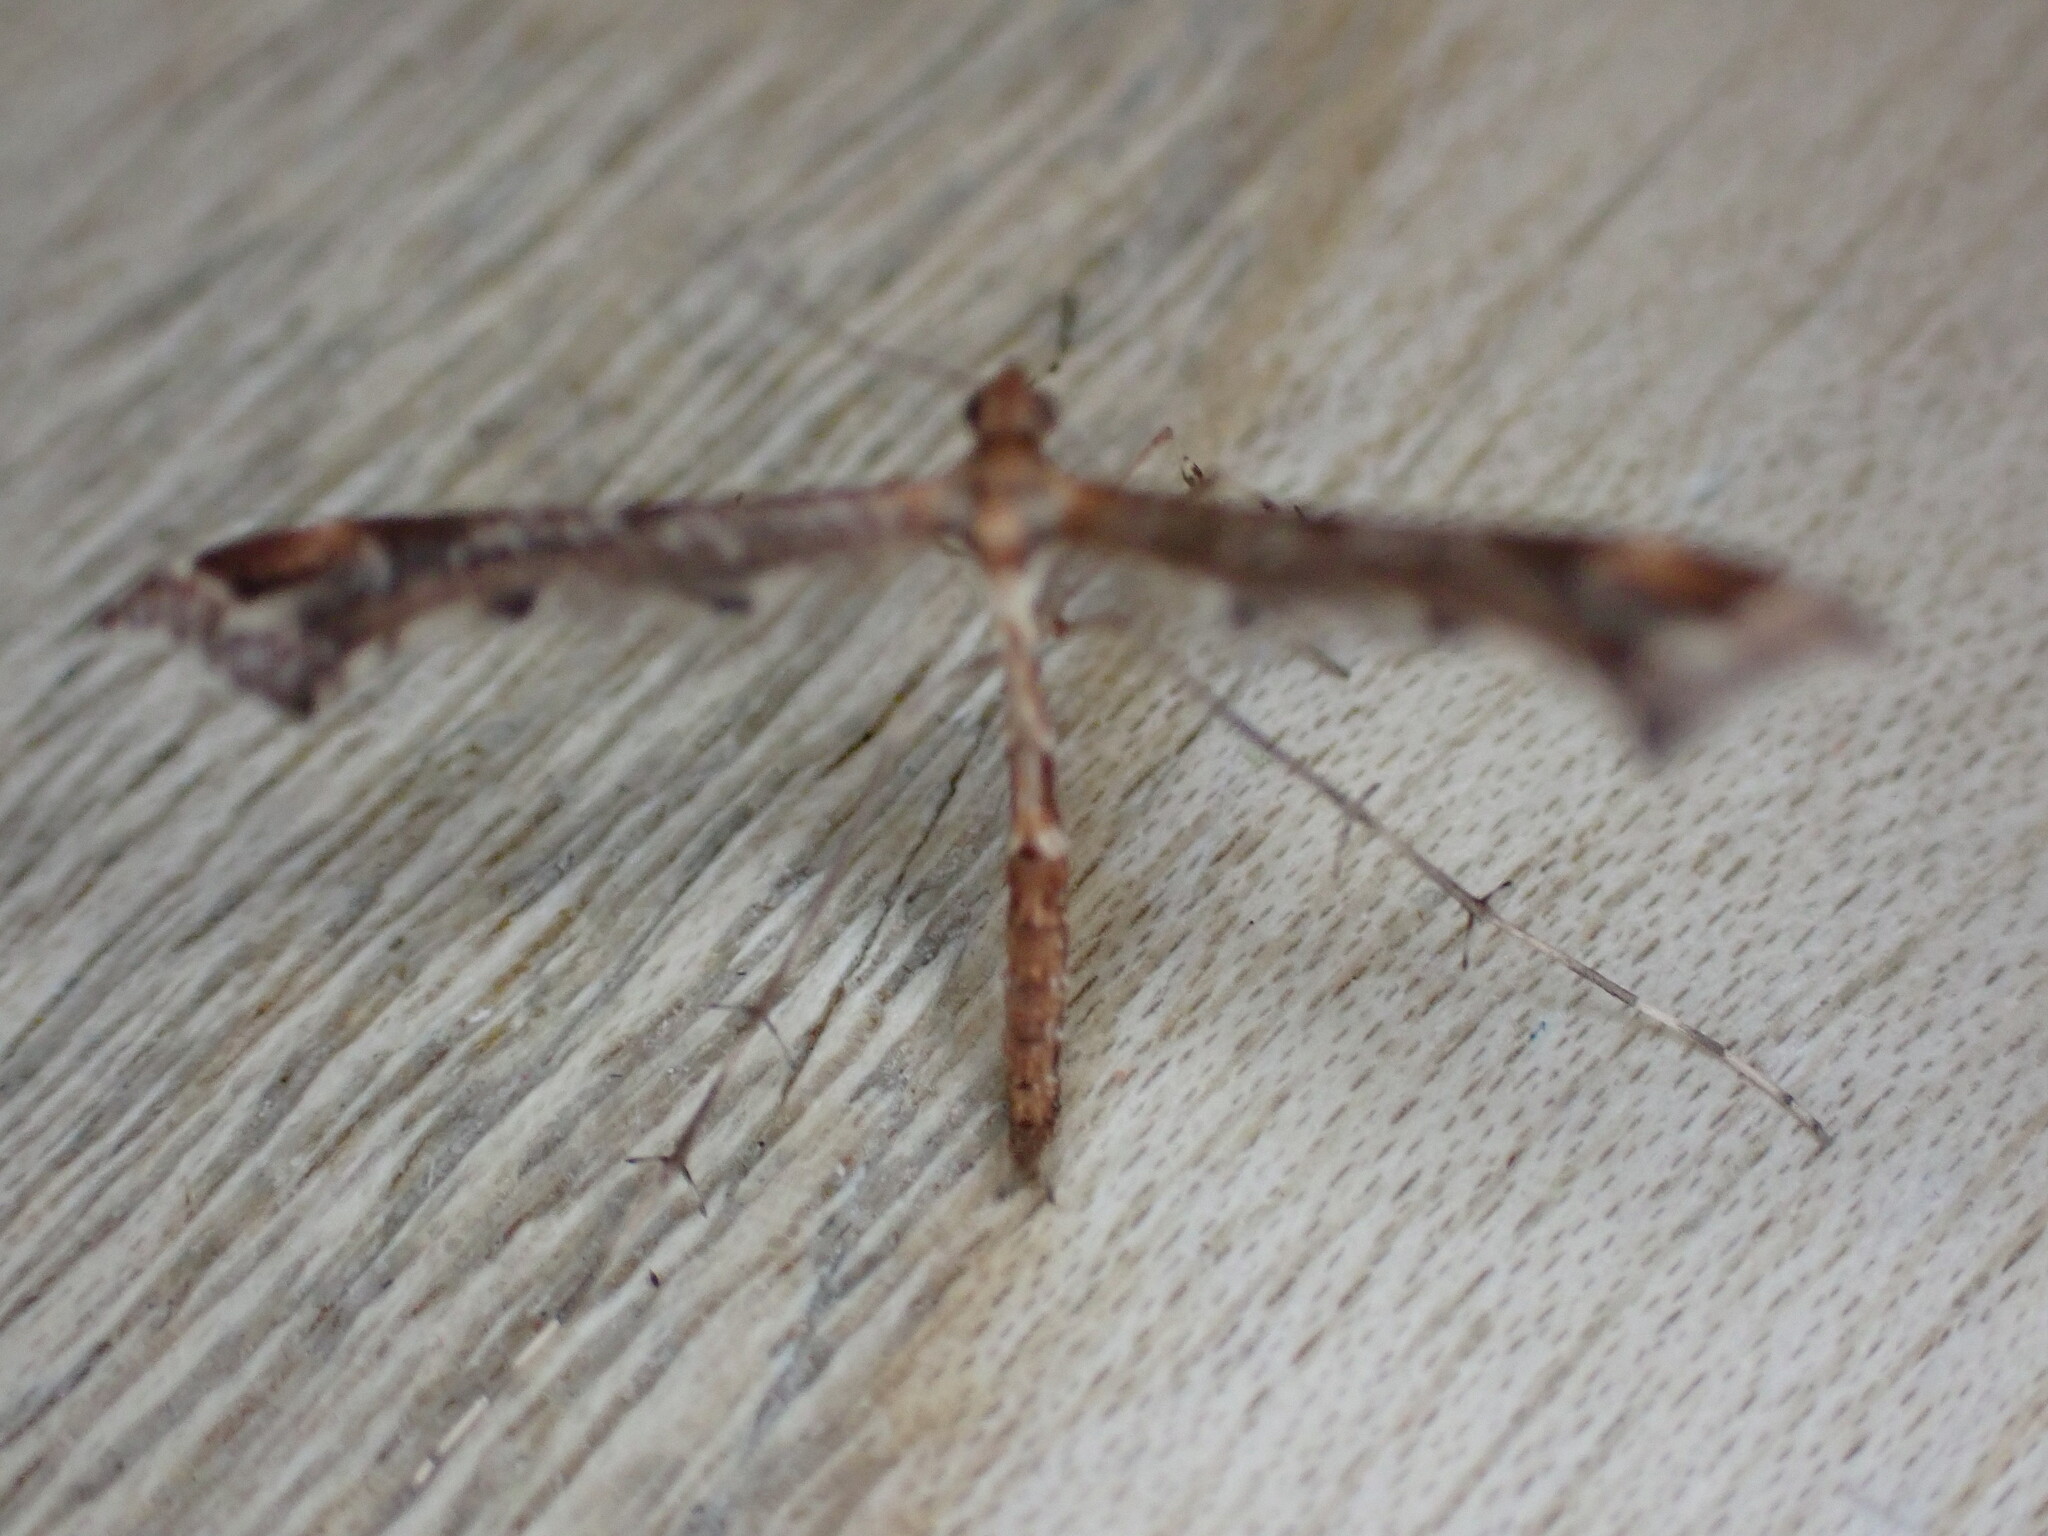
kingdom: Animalia
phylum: Arthropoda
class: Insecta
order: Lepidoptera
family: Pterophoridae
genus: Amblyptilia
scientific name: Amblyptilia acanthadactyla
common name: Beautiful plume
